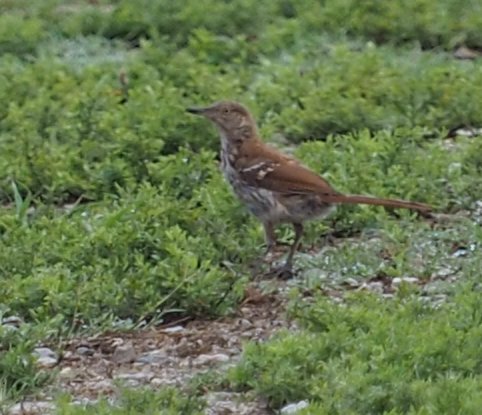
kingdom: Animalia
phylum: Chordata
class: Aves
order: Passeriformes
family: Mimidae
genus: Toxostoma
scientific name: Toxostoma rufum
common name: Brown thrasher
